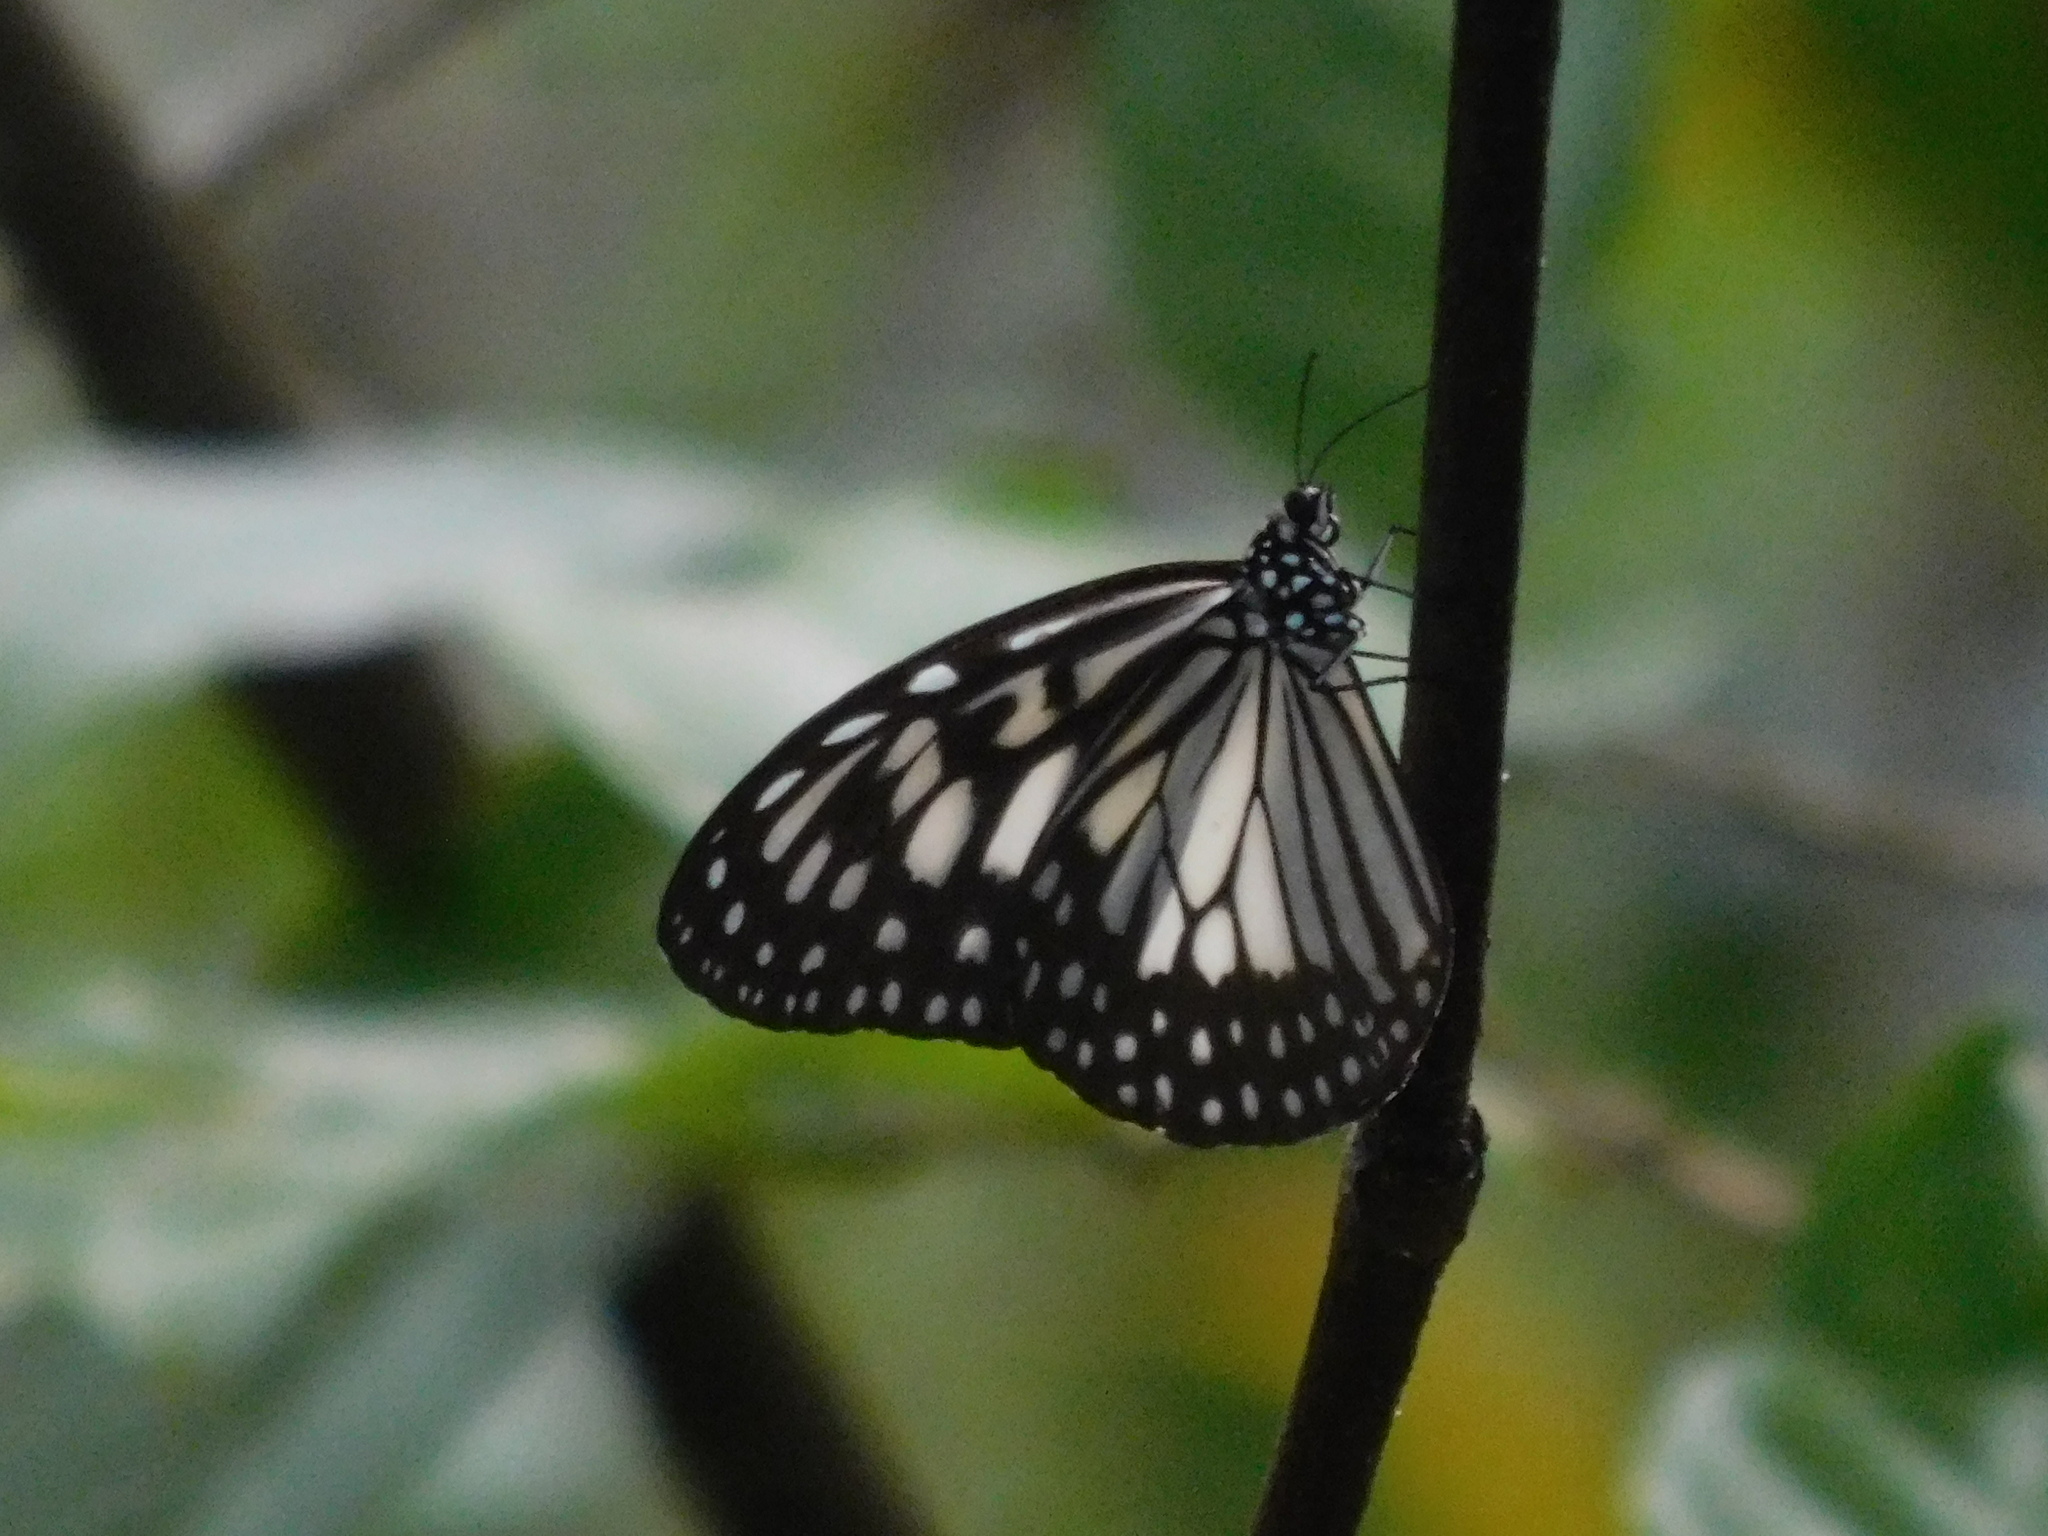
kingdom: Animalia
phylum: Arthropoda
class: Insecta
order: Lepidoptera
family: Nymphalidae
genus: Ideopsis
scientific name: Ideopsis juventa
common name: Grey glassy tiger
